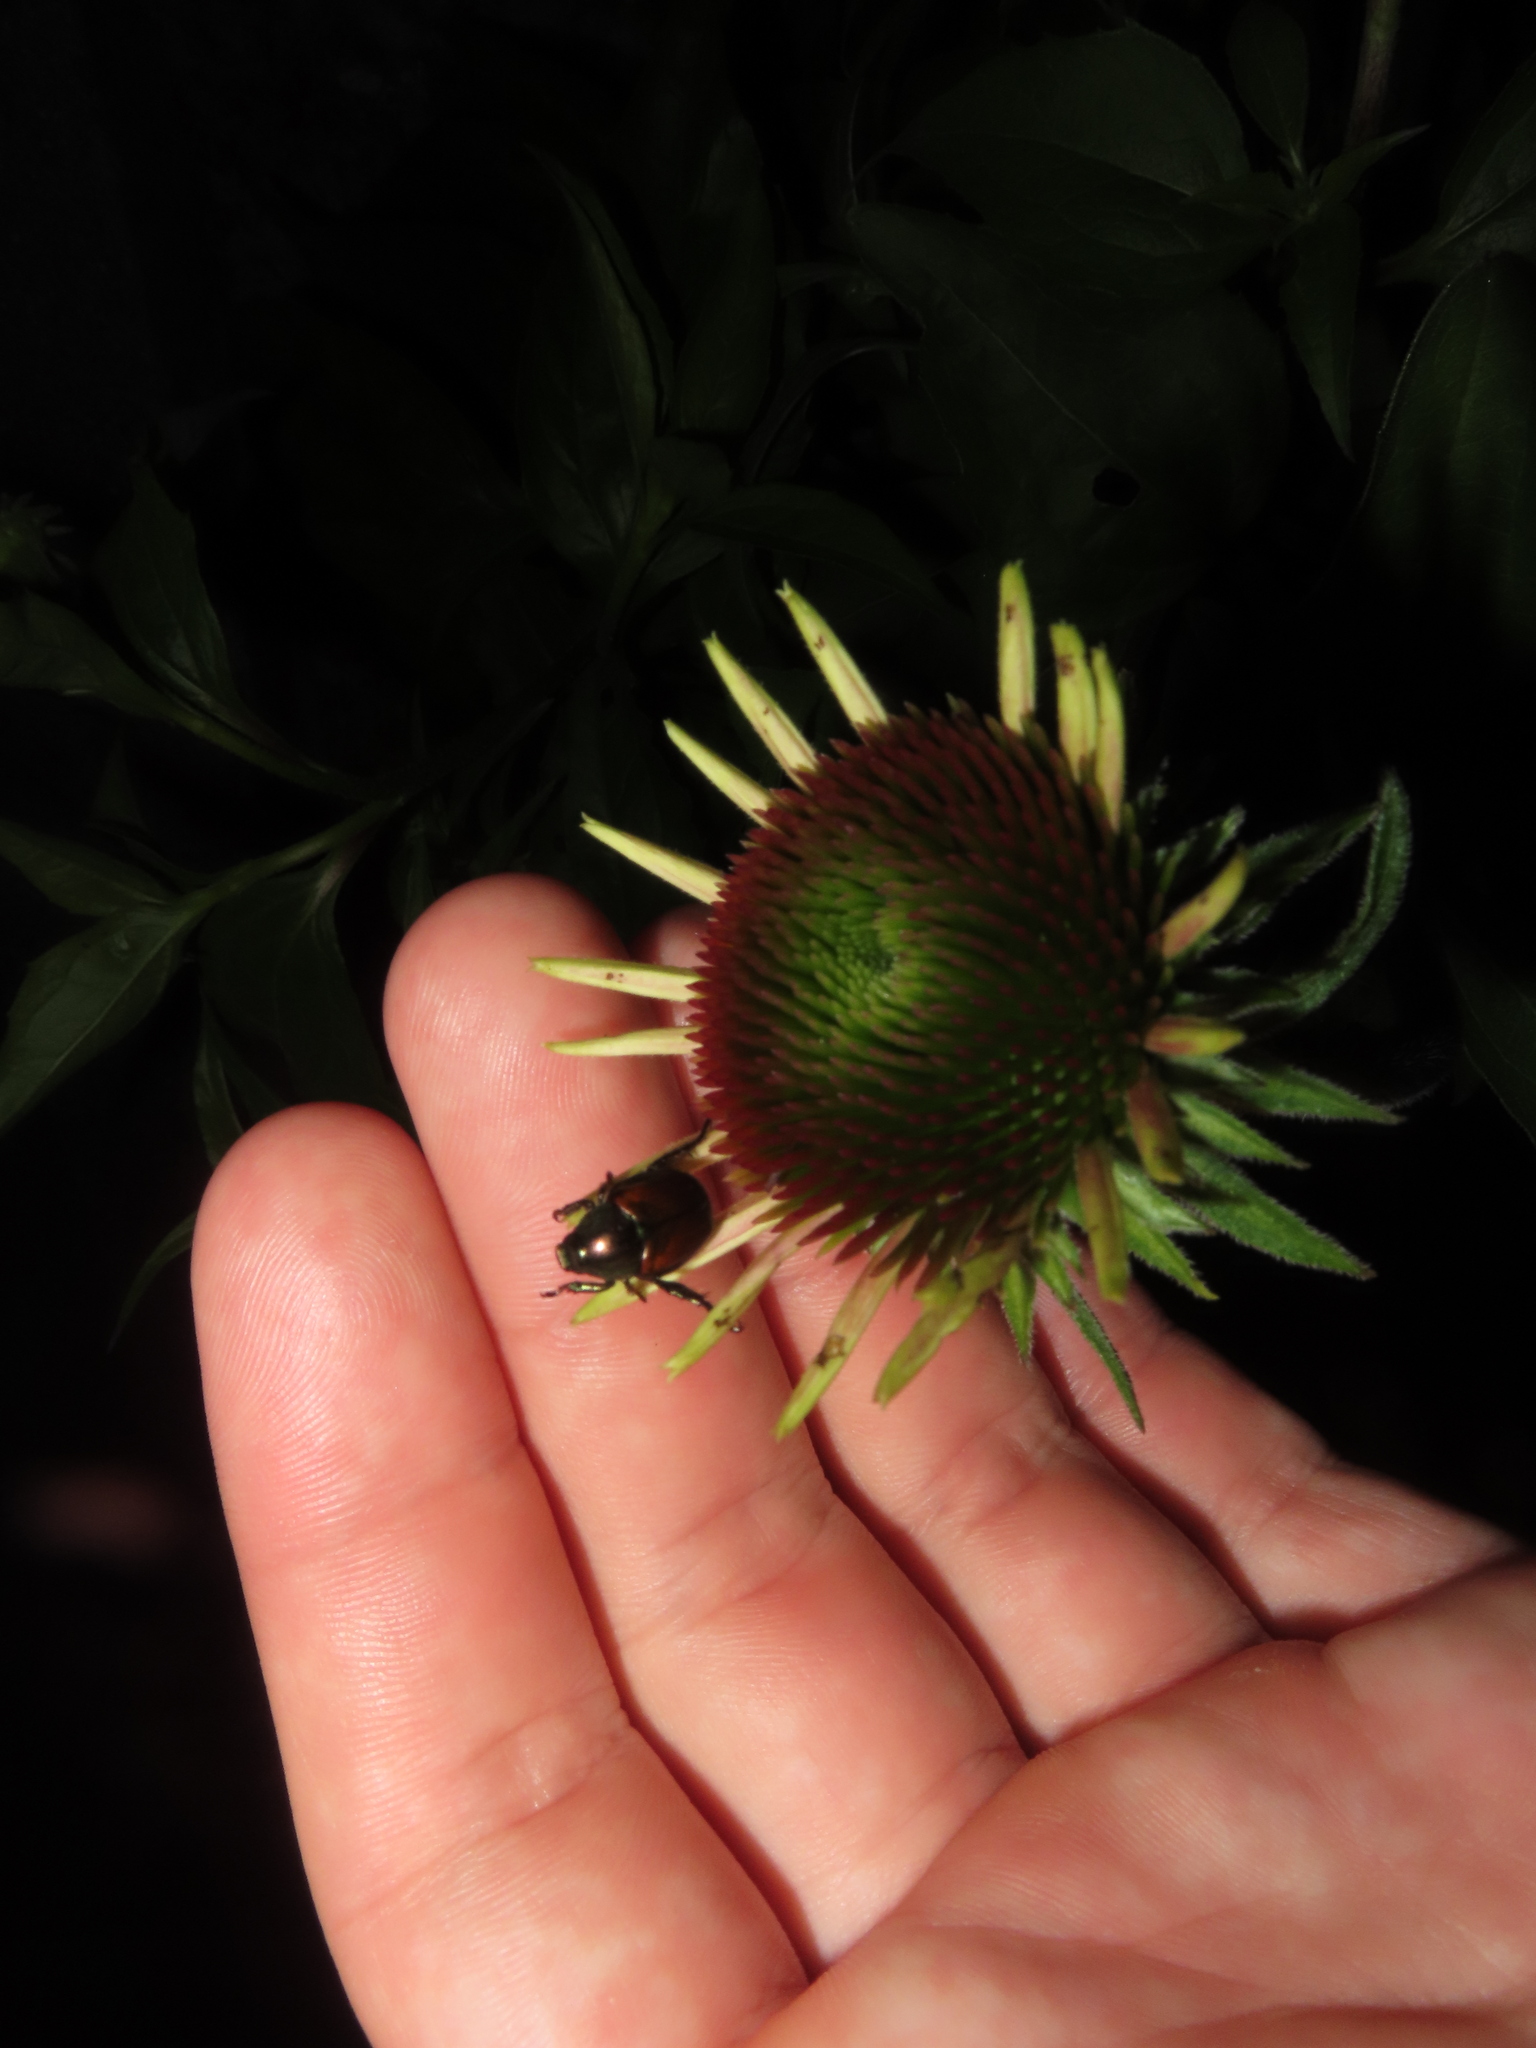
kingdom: Animalia
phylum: Arthropoda
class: Insecta
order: Coleoptera
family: Scarabaeidae
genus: Popillia
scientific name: Popillia japonica
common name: Japanese beetle
